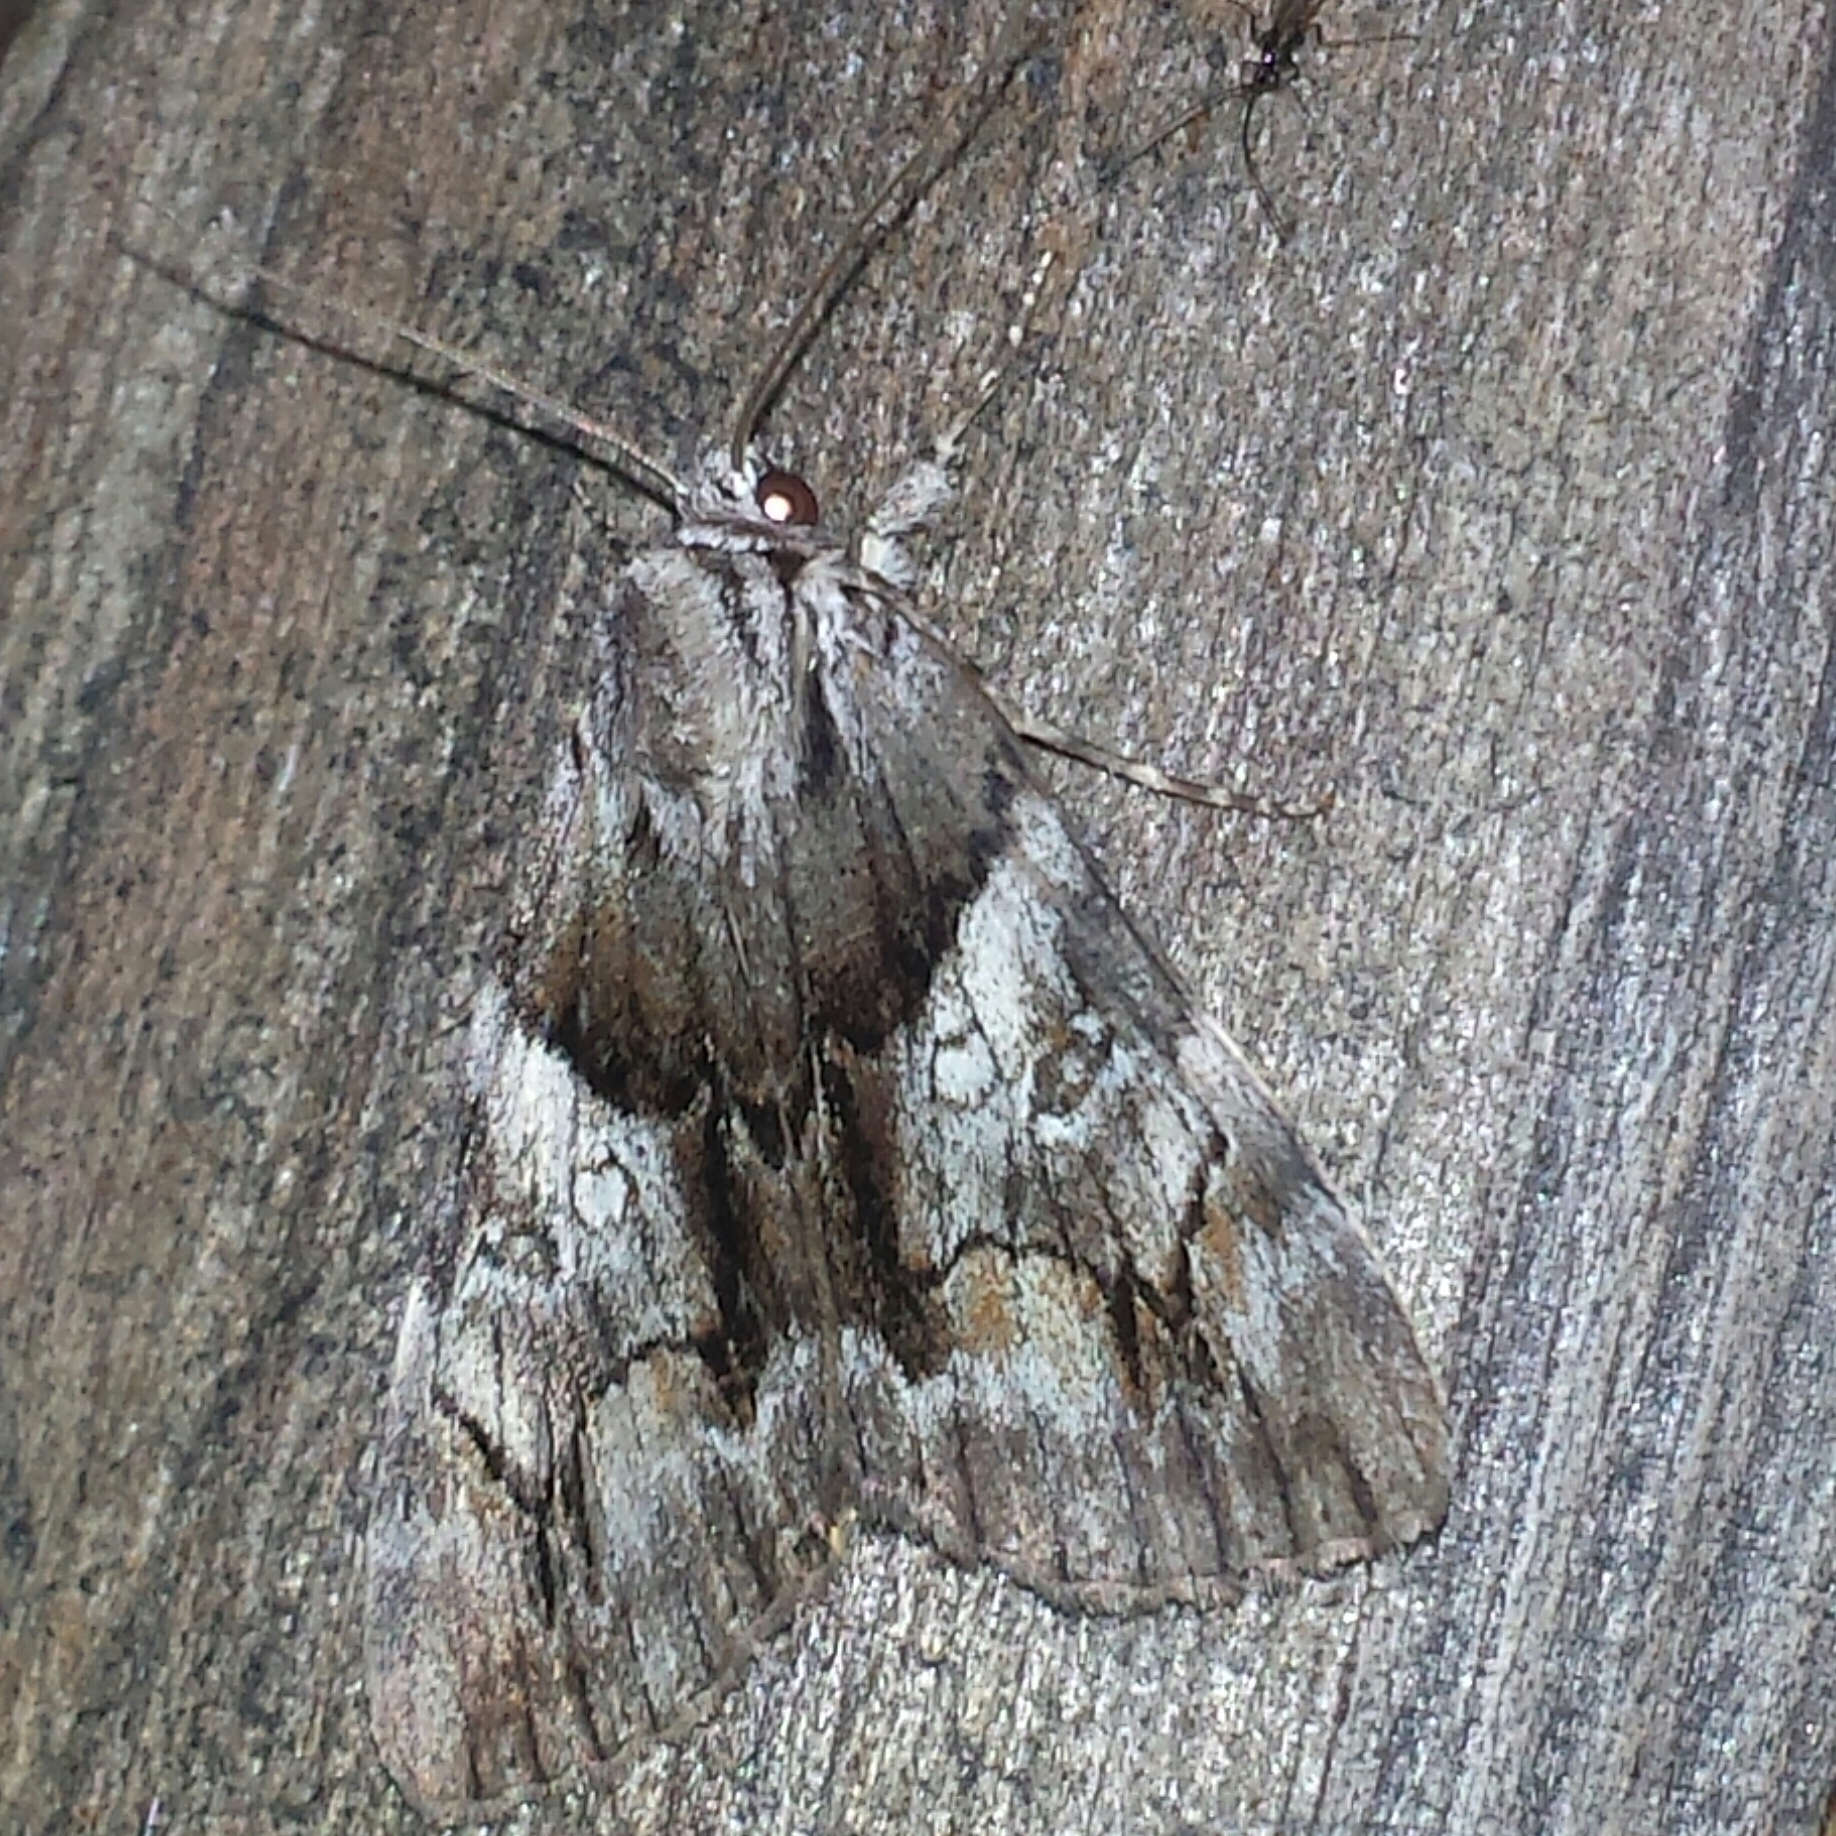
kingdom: Animalia
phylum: Arthropoda
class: Insecta
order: Lepidoptera
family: Erebidae
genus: Catocala
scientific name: Catocala blandula
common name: Charming underwing
